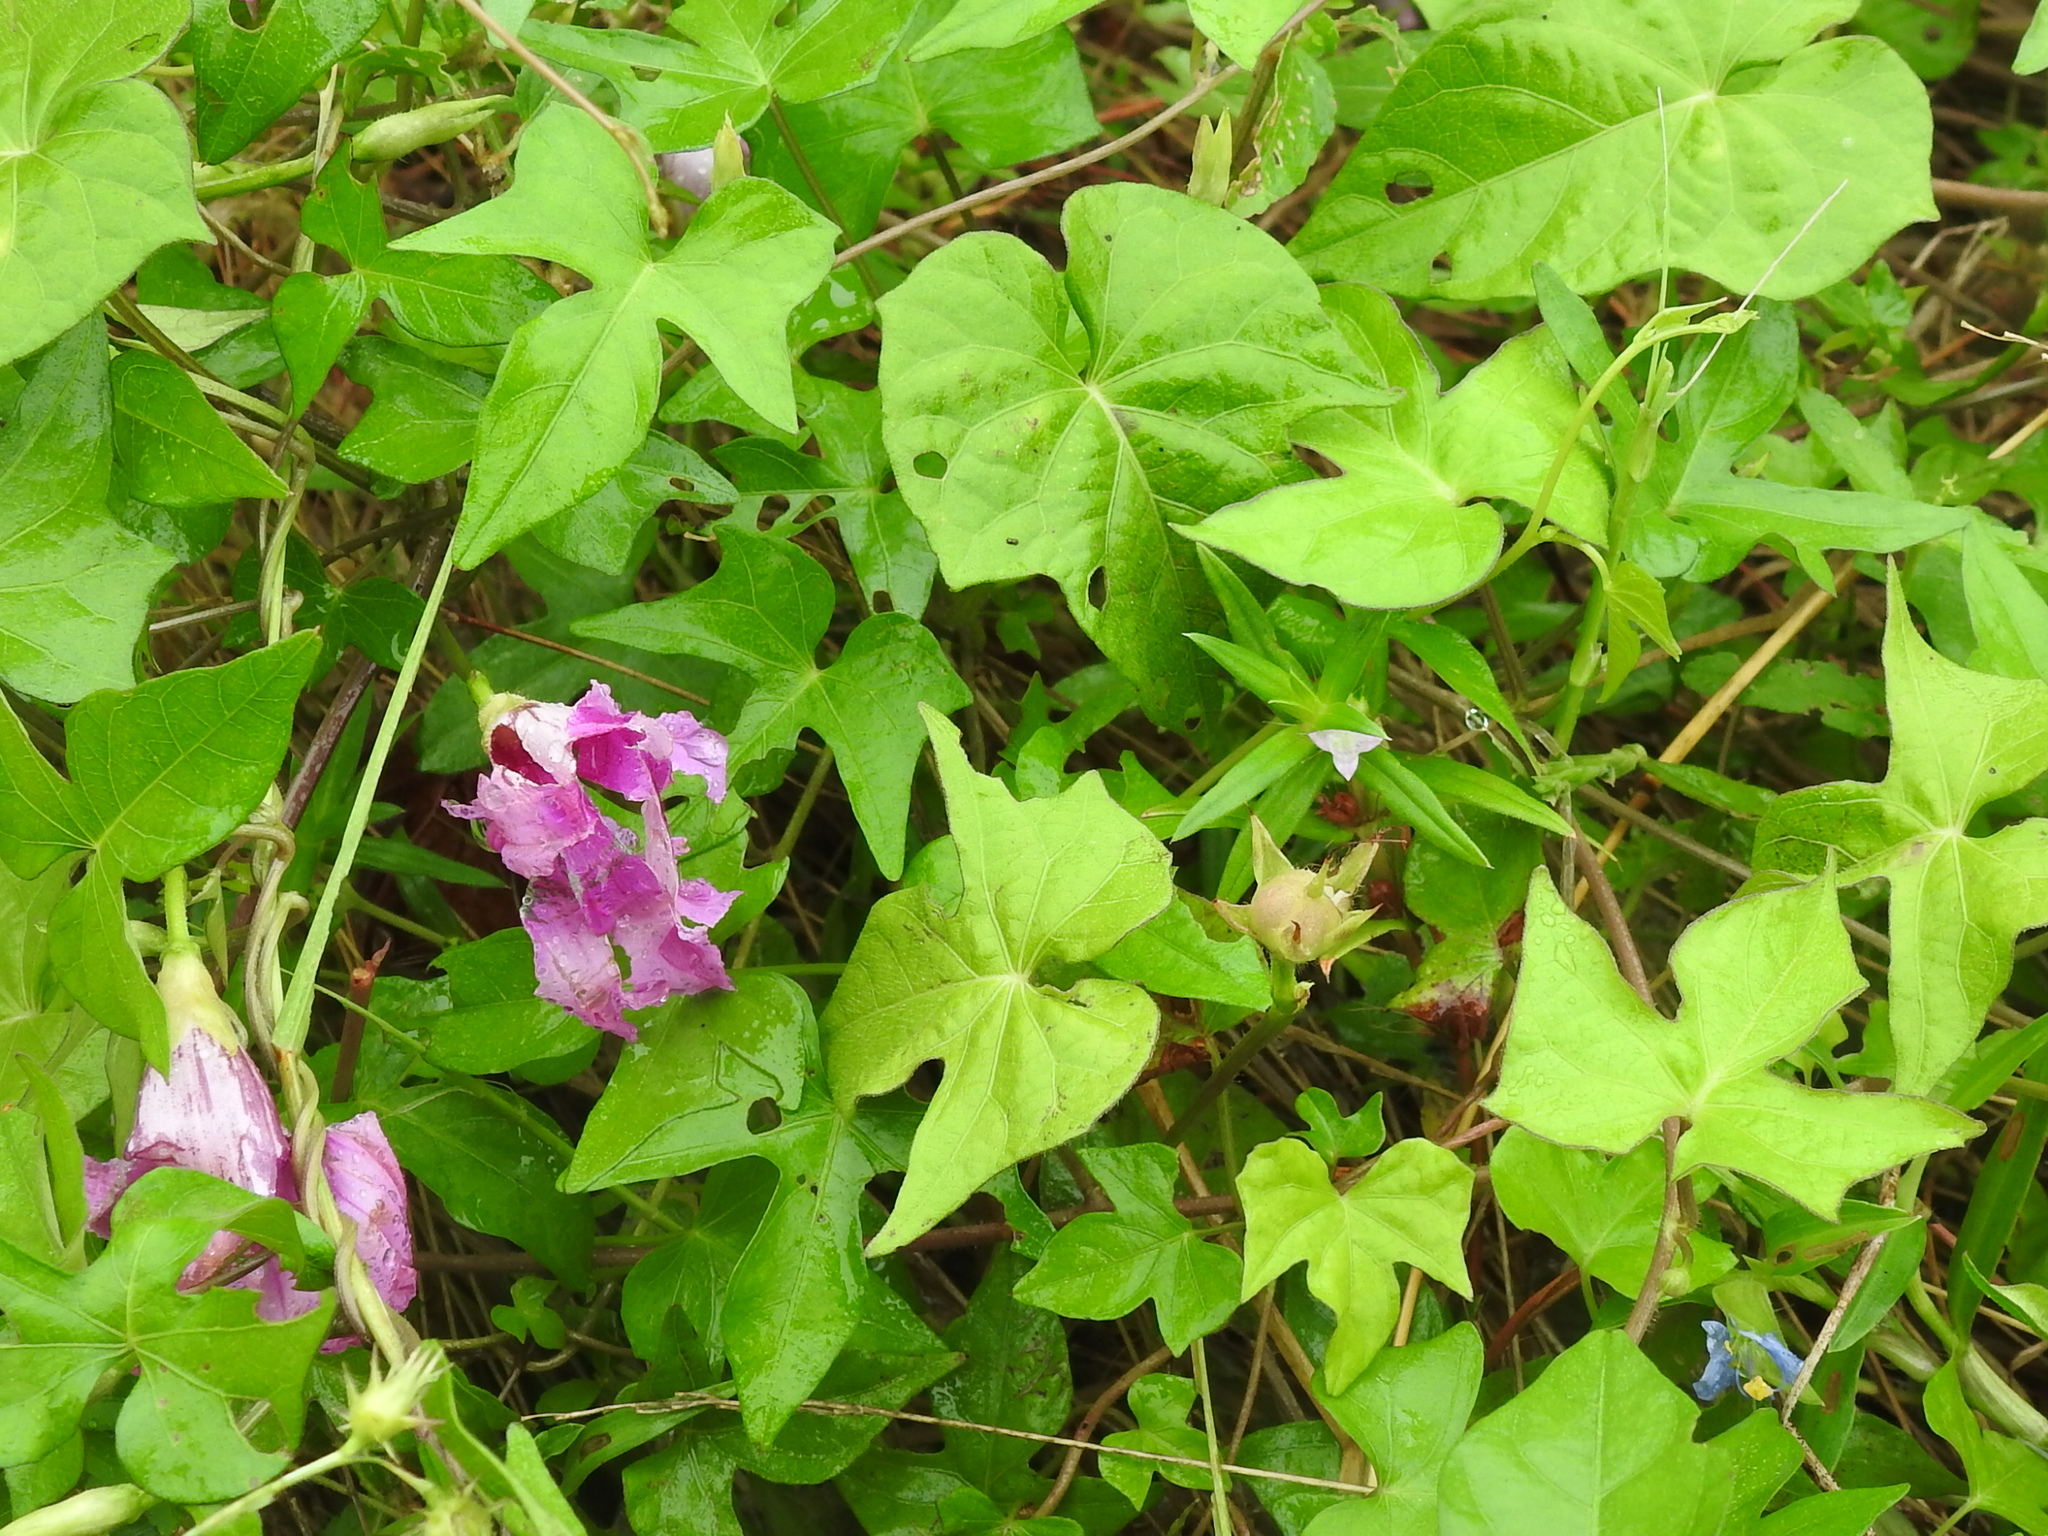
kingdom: Plantae
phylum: Tracheophyta
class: Magnoliopsida
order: Solanales
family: Convolvulaceae
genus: Ipomoea
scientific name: Ipomoea cordatotriloba
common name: Cotton morning glory
